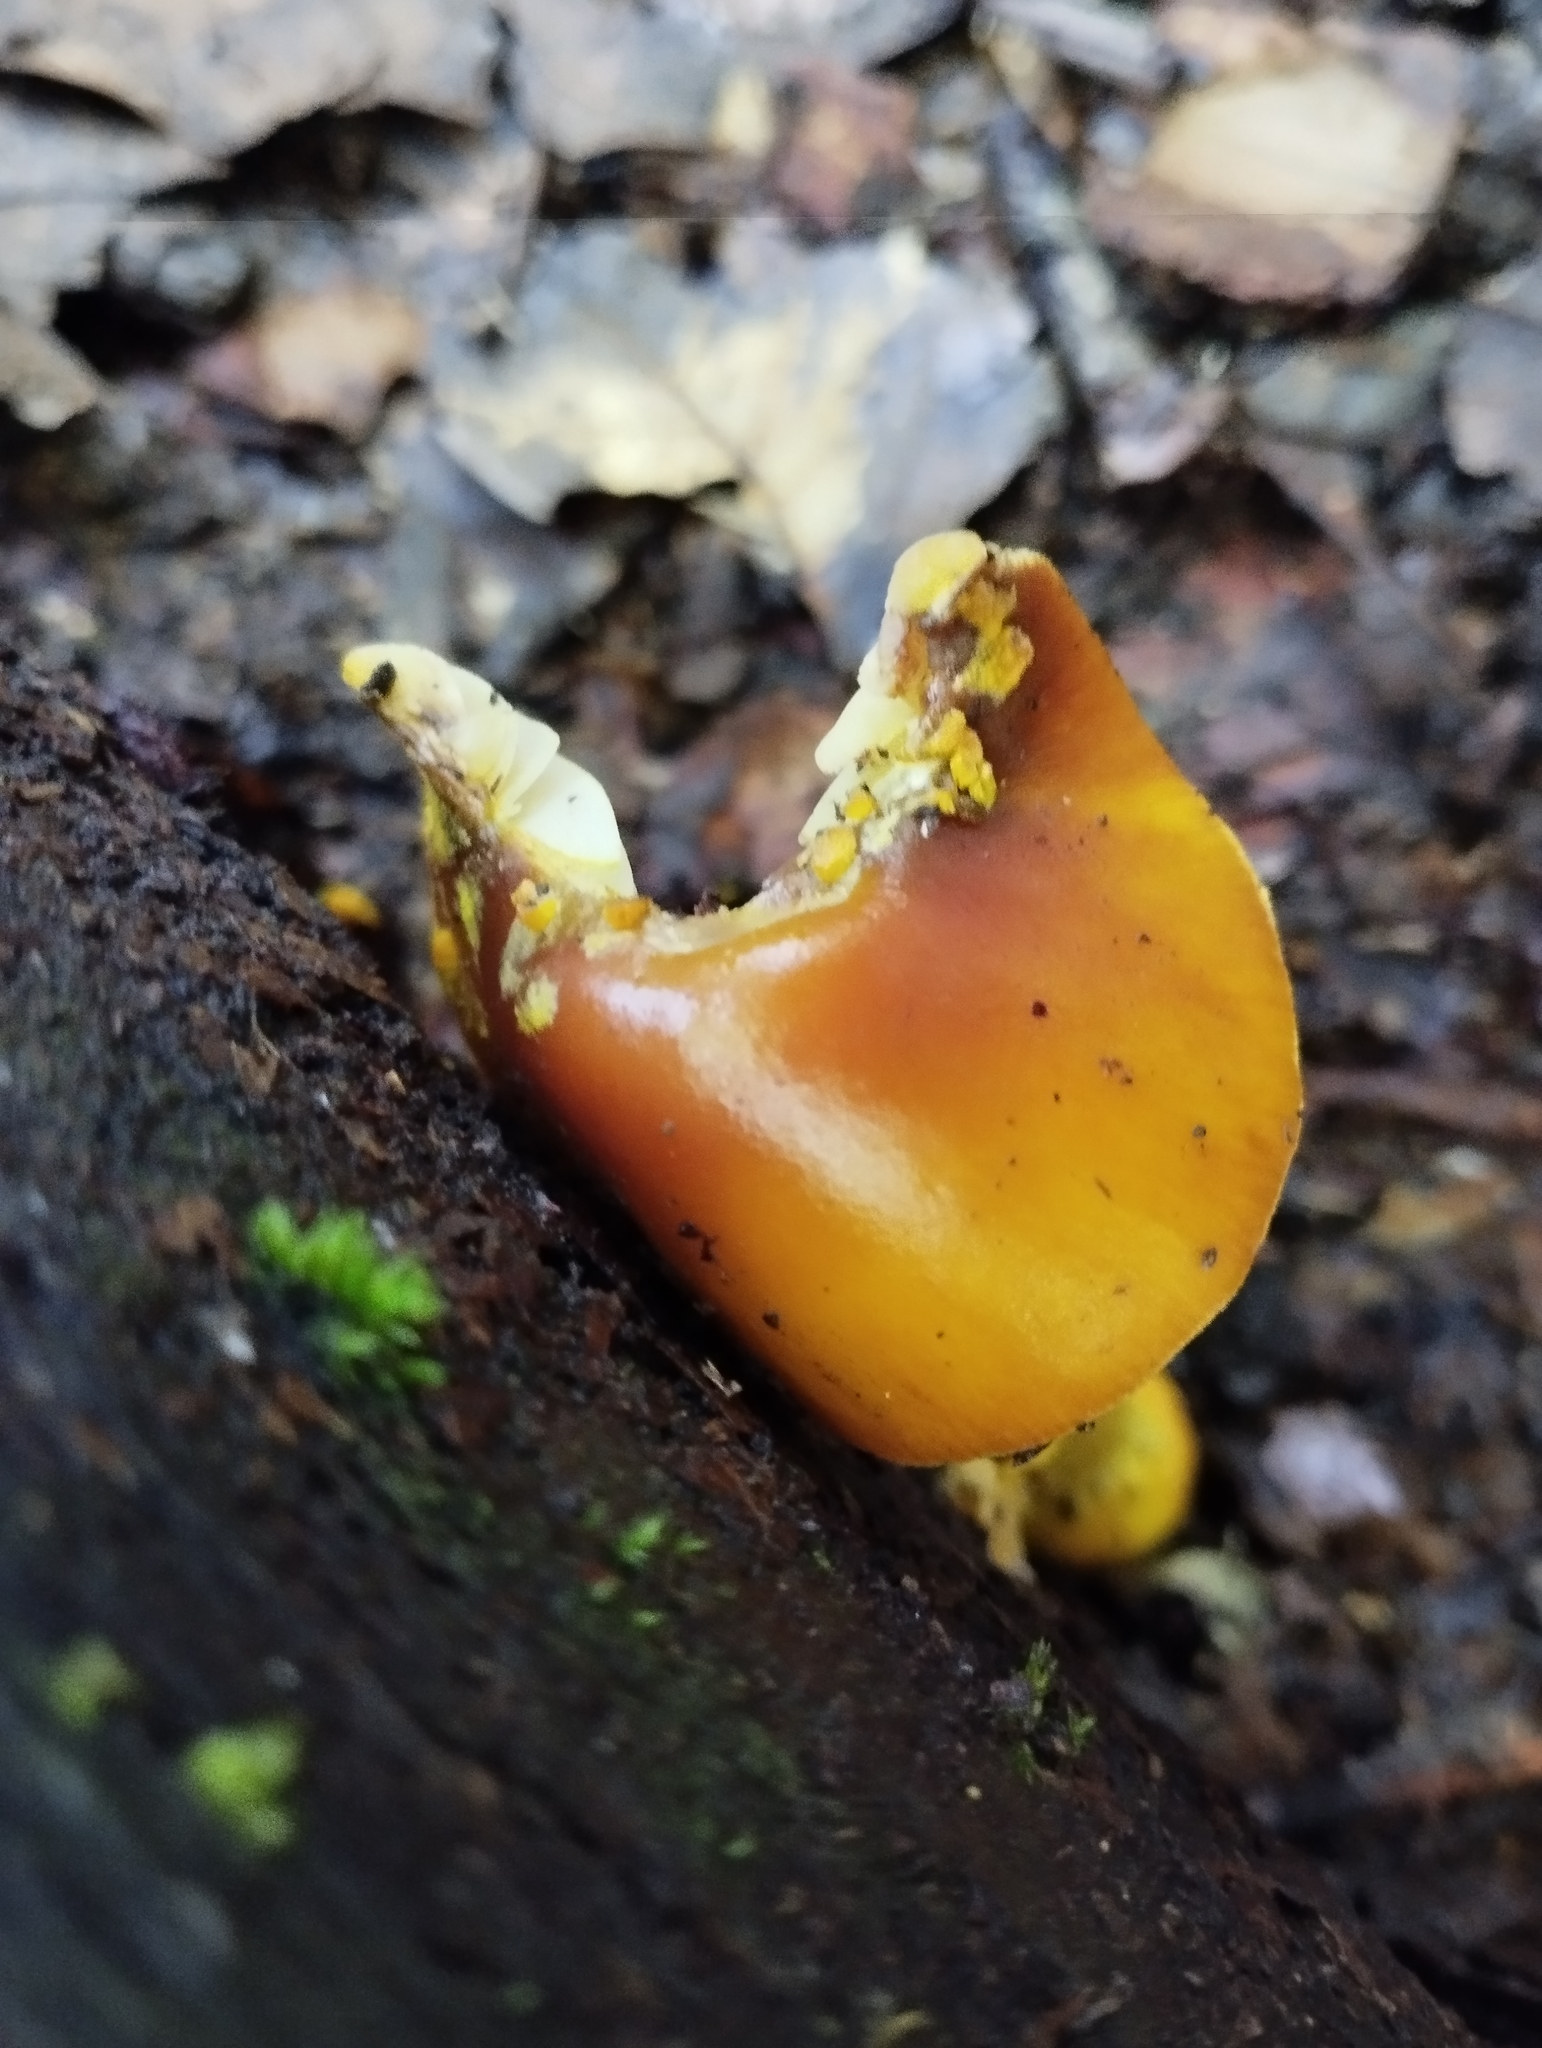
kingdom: Fungi
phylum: Basidiomycota
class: Agaricomycetes
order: Agaricales
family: Amanitaceae
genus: Amanita
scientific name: Amanita flavoconia
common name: Yellow patches
